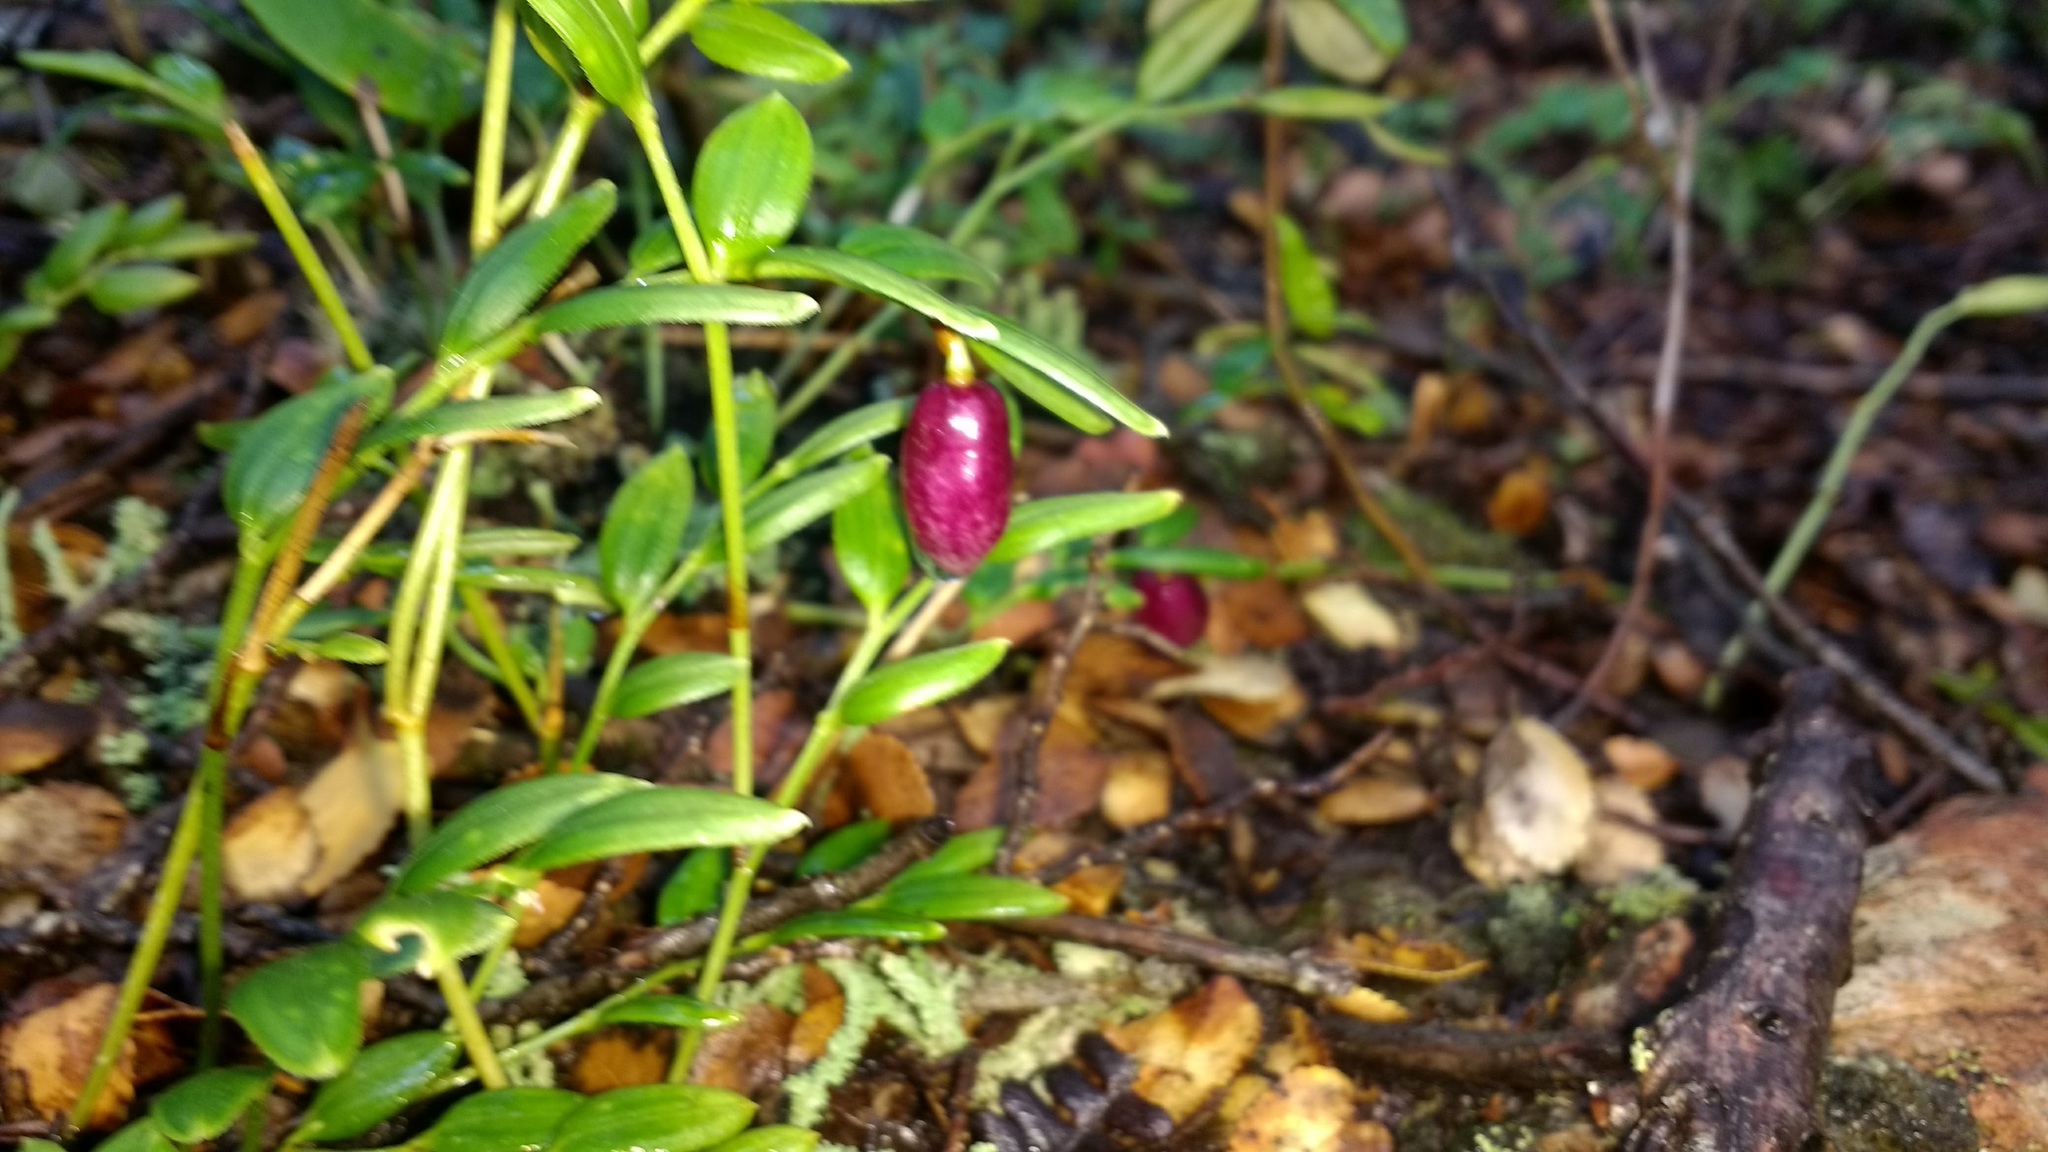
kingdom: Plantae
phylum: Tracheophyta
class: Liliopsida
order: Liliales
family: Alstroemeriaceae
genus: Luzuriaga
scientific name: Luzuriaga marginata
